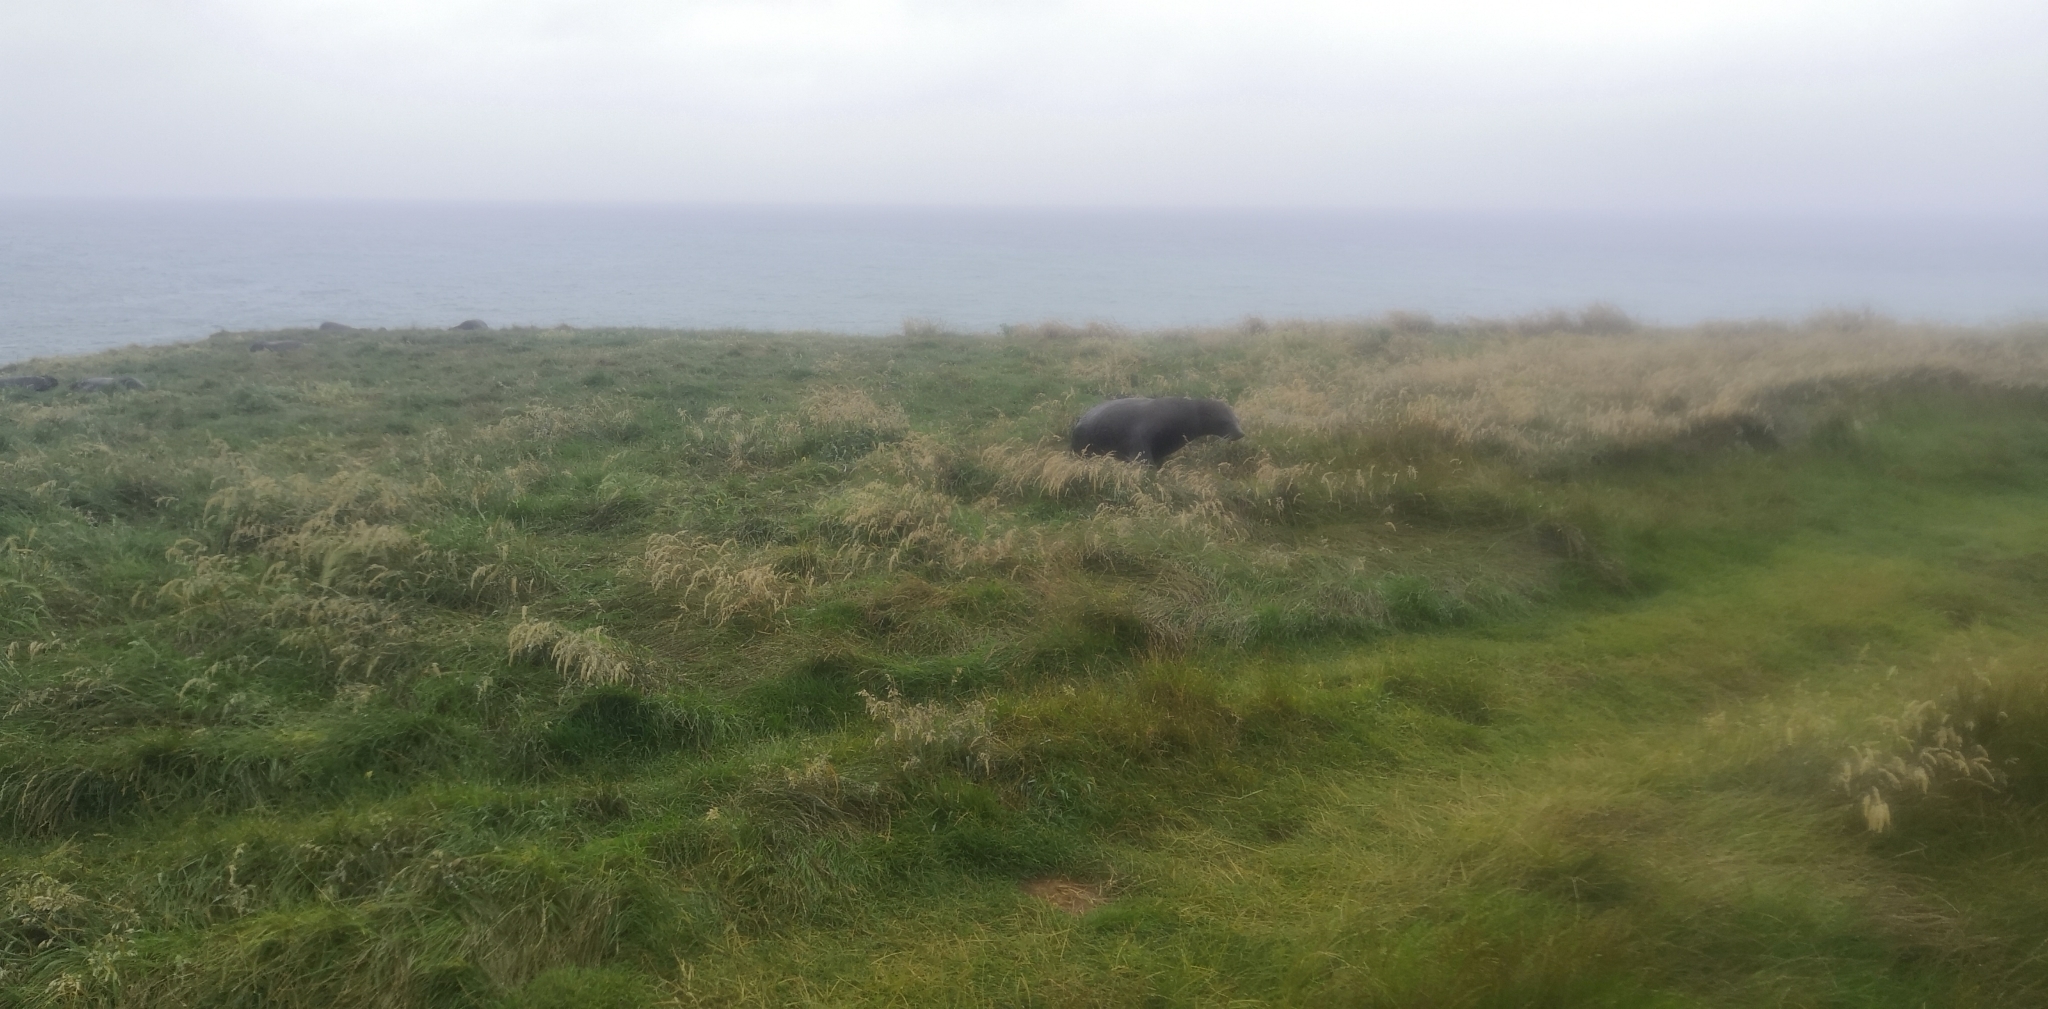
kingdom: Animalia
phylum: Chordata
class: Mammalia
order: Carnivora
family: Otariidae
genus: Arctocephalus
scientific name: Arctocephalus forsteri
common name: New zealand fur seal
